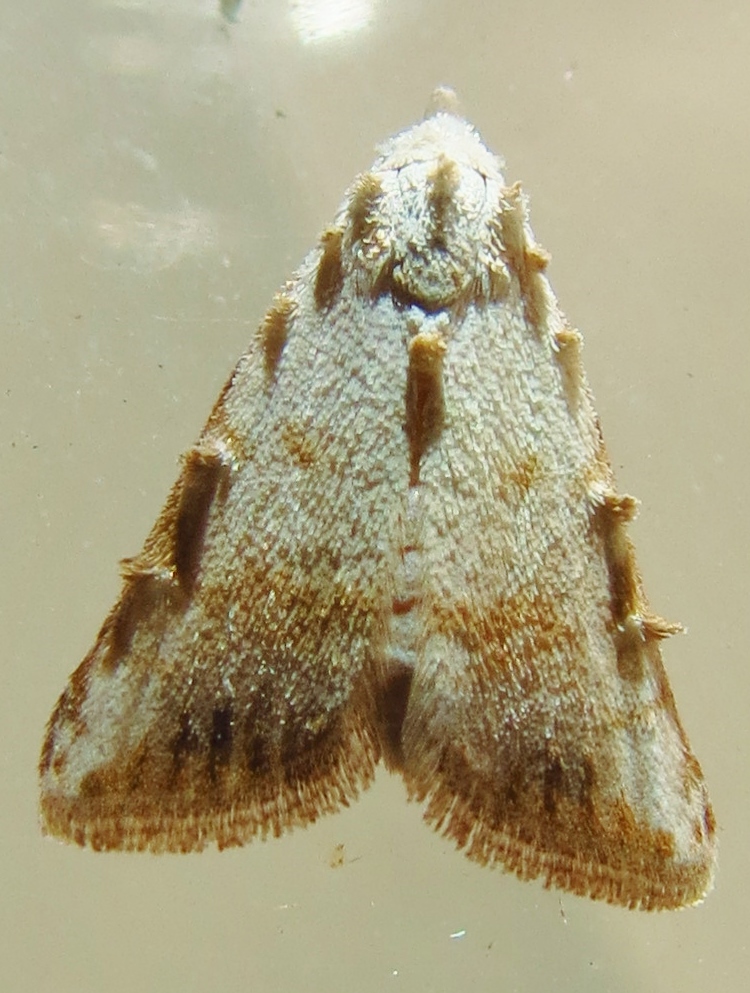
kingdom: Animalia
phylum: Arthropoda
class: Insecta
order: Lepidoptera
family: Nolidae
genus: Nola
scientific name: Nola cereella
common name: Sorghum webworm moth
